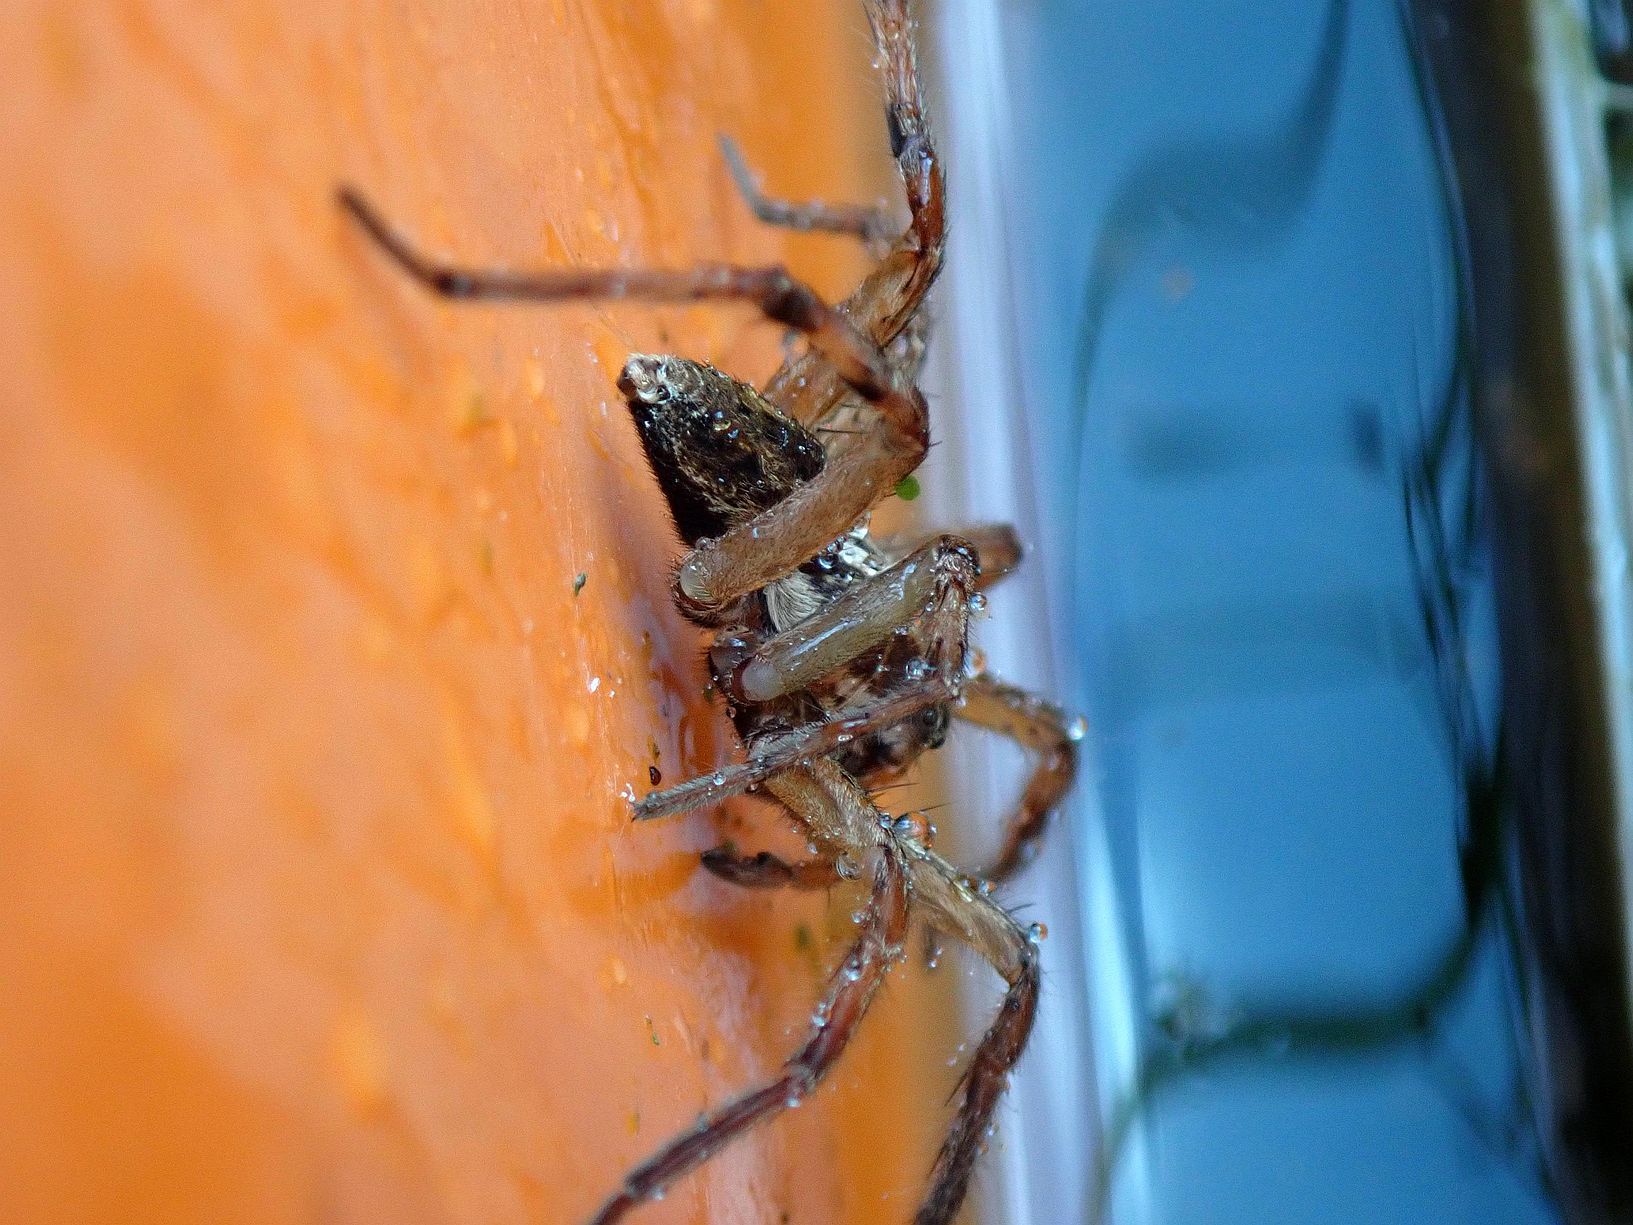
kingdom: Animalia
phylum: Arthropoda
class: Arachnida
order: Araneae
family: Lycosidae
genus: Hogna
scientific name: Hogna radiata
